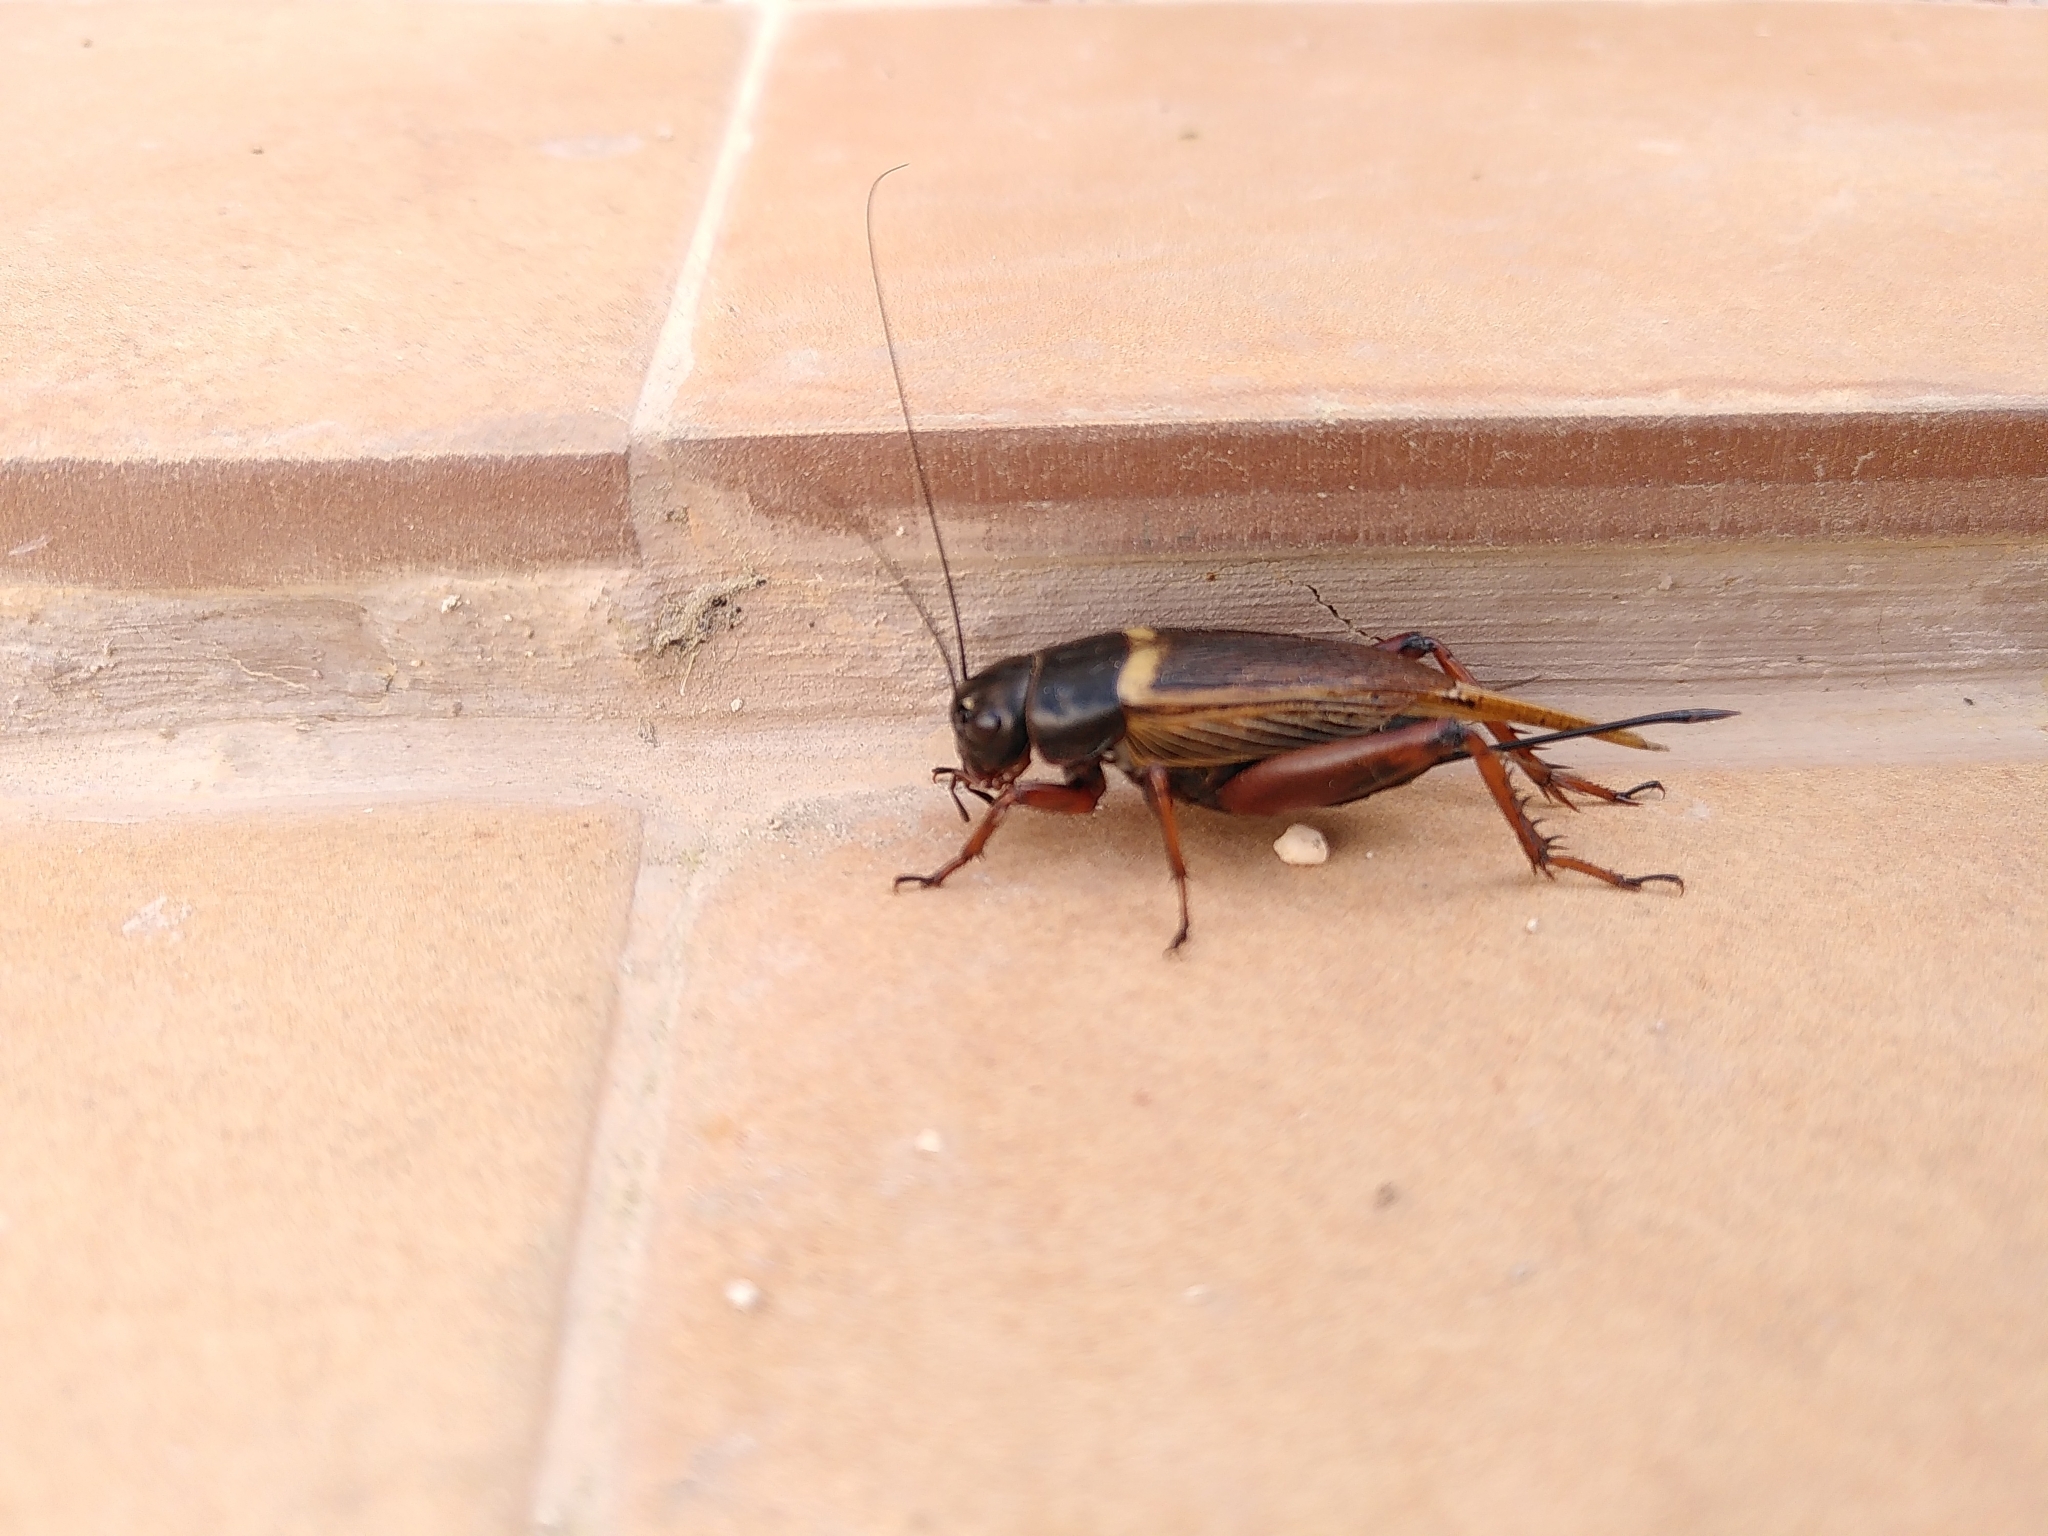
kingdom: Animalia
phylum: Arthropoda
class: Insecta
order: Orthoptera
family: Gryllidae
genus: Gryllus
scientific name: Gryllus bimaculatus
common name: Two-spotted cricket
